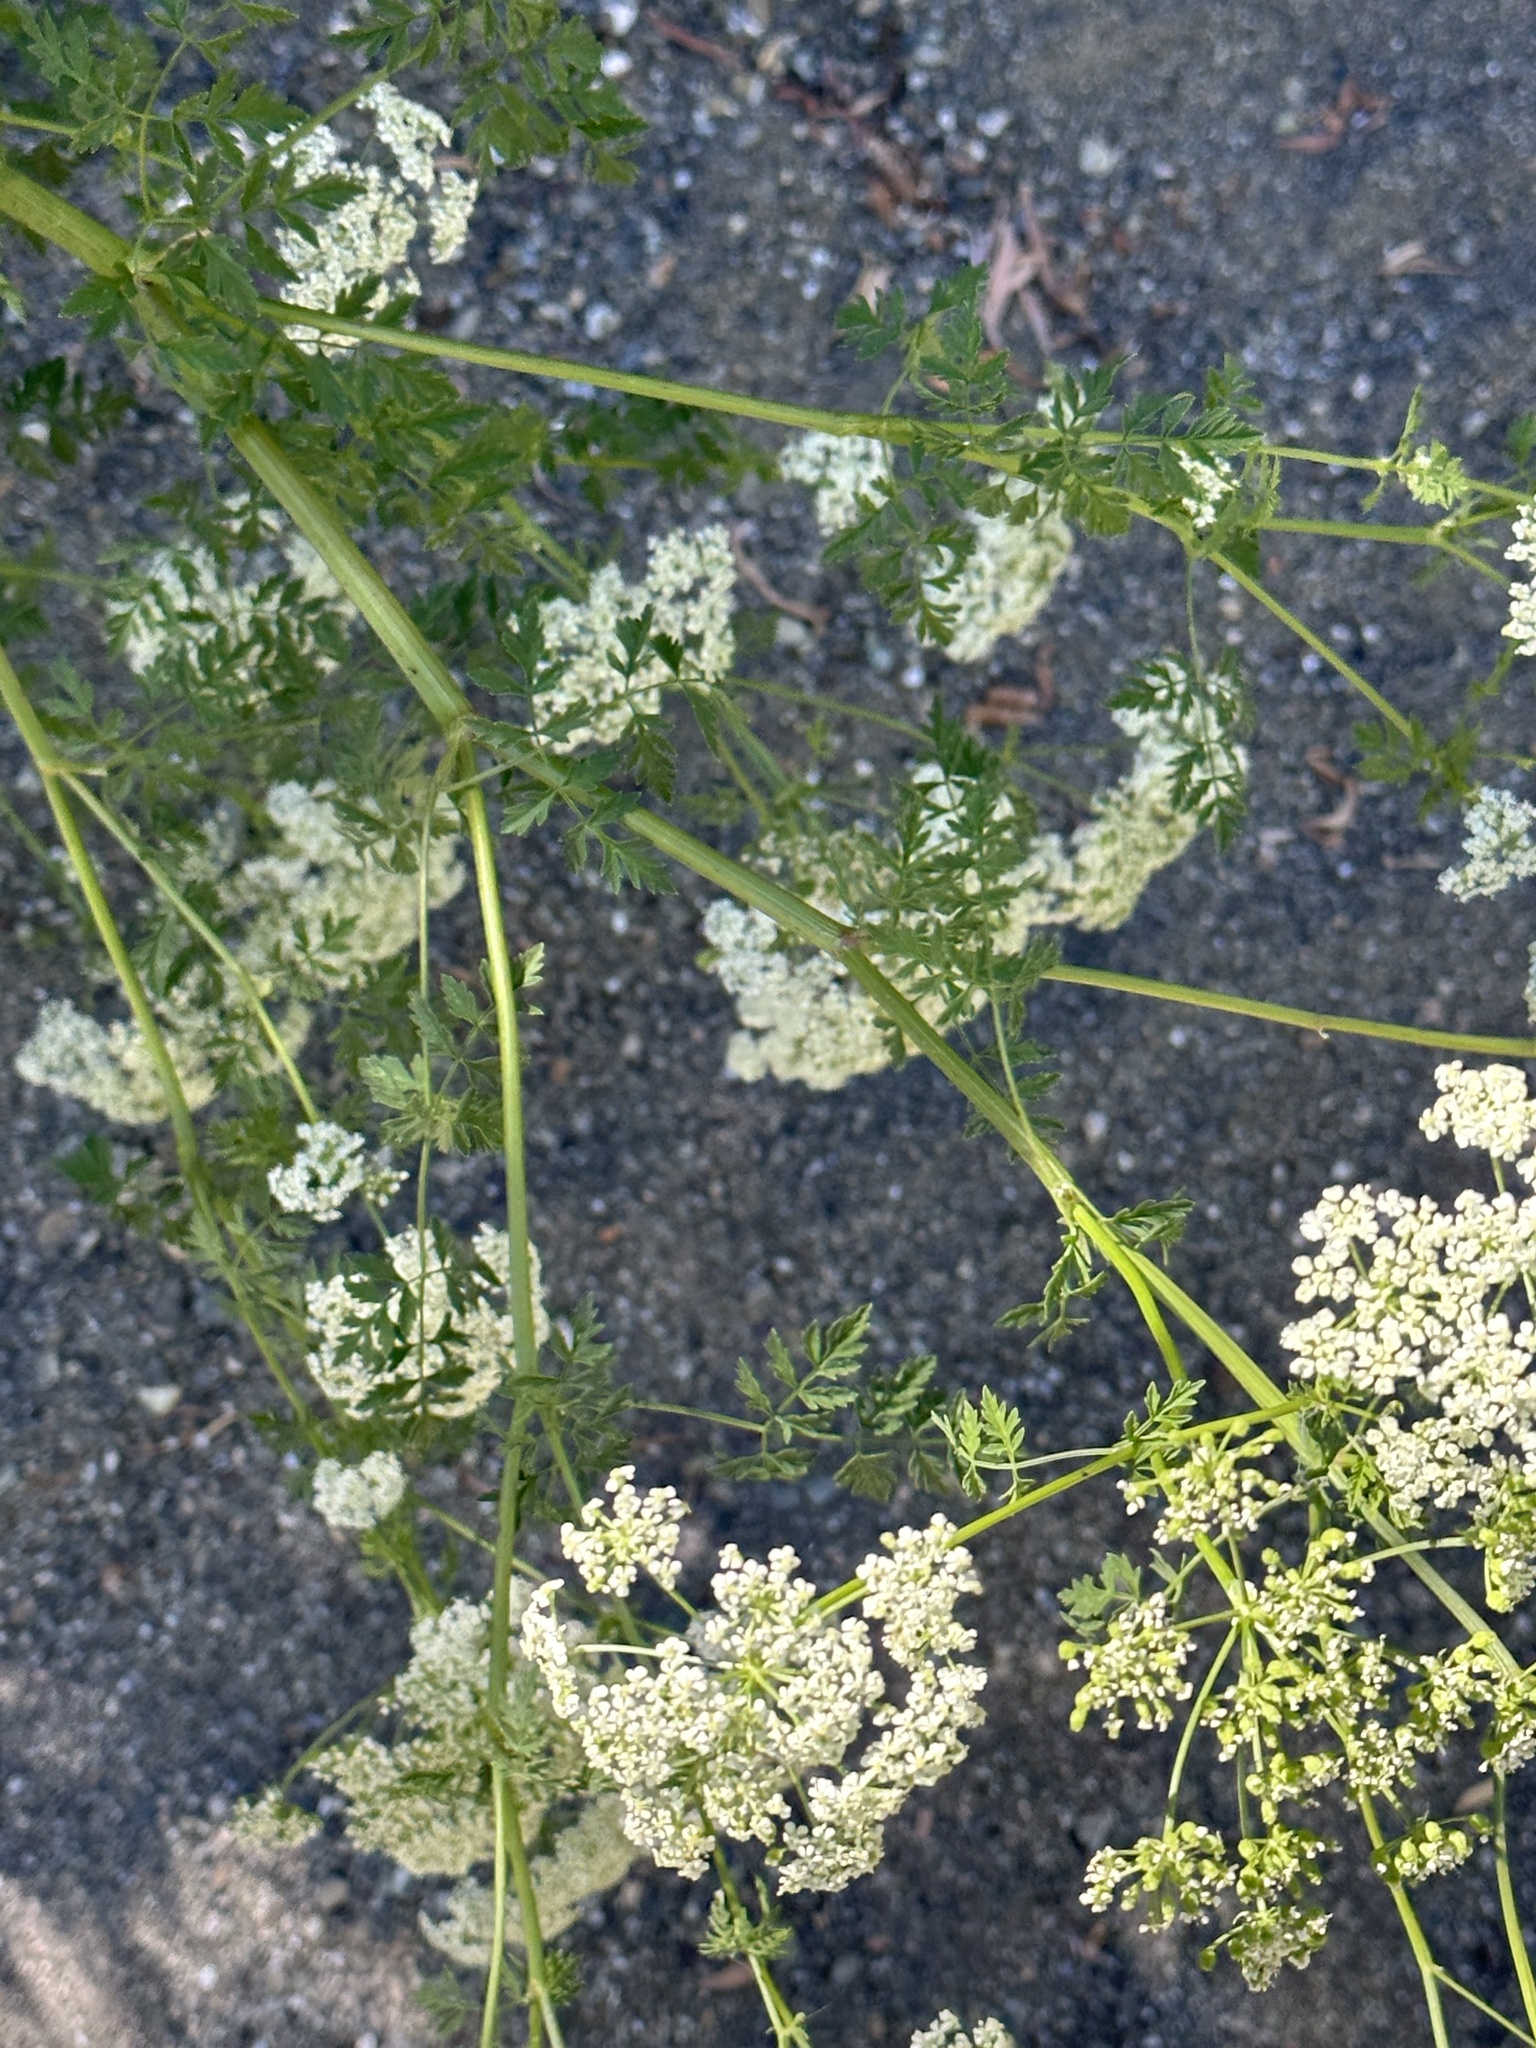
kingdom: Plantae
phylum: Tracheophyta
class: Magnoliopsida
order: Apiales
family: Apiaceae
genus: Conium
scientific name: Conium maculatum
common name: Hemlock
